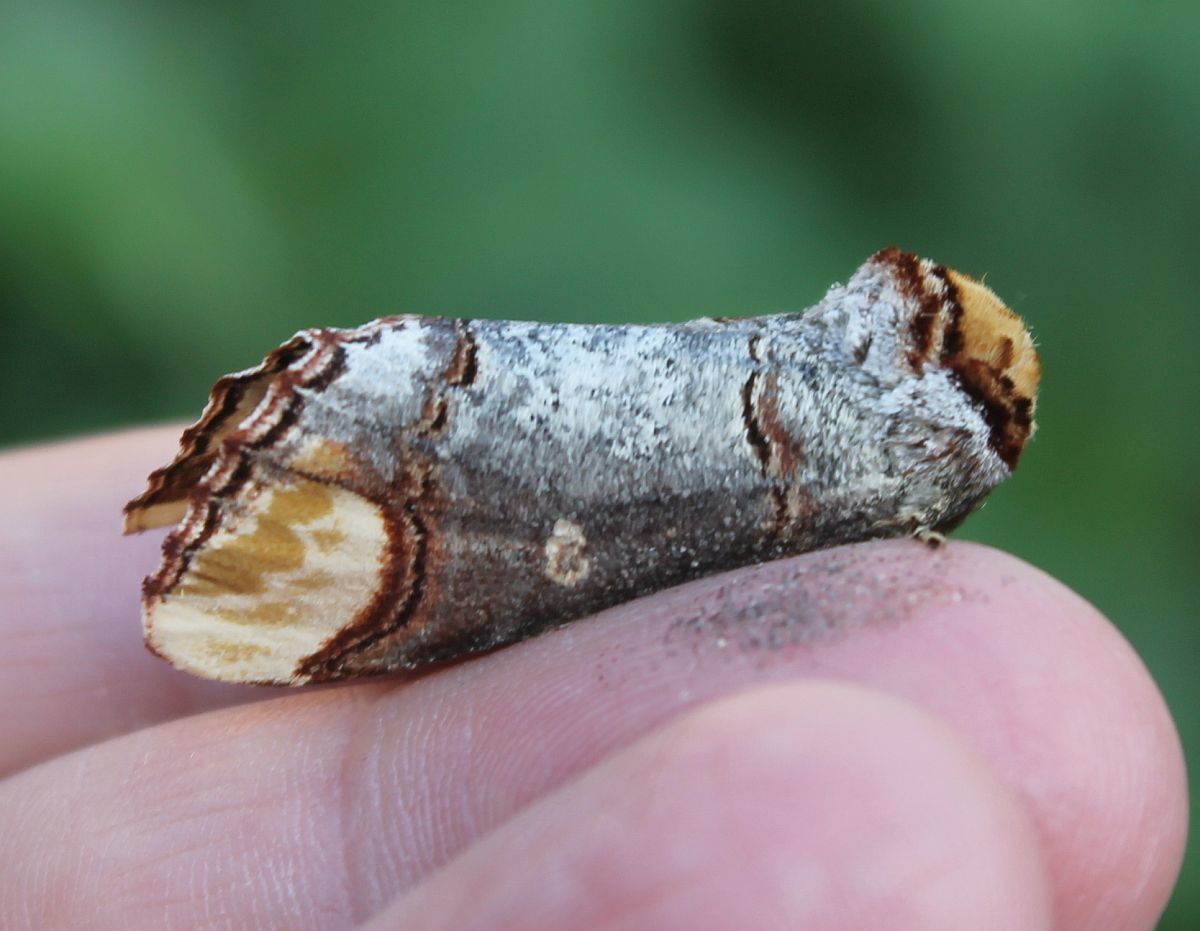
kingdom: Animalia
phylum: Arthropoda
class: Insecta
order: Lepidoptera
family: Notodontidae
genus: Phalera
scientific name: Phalera bucephala
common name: Buff-tip
